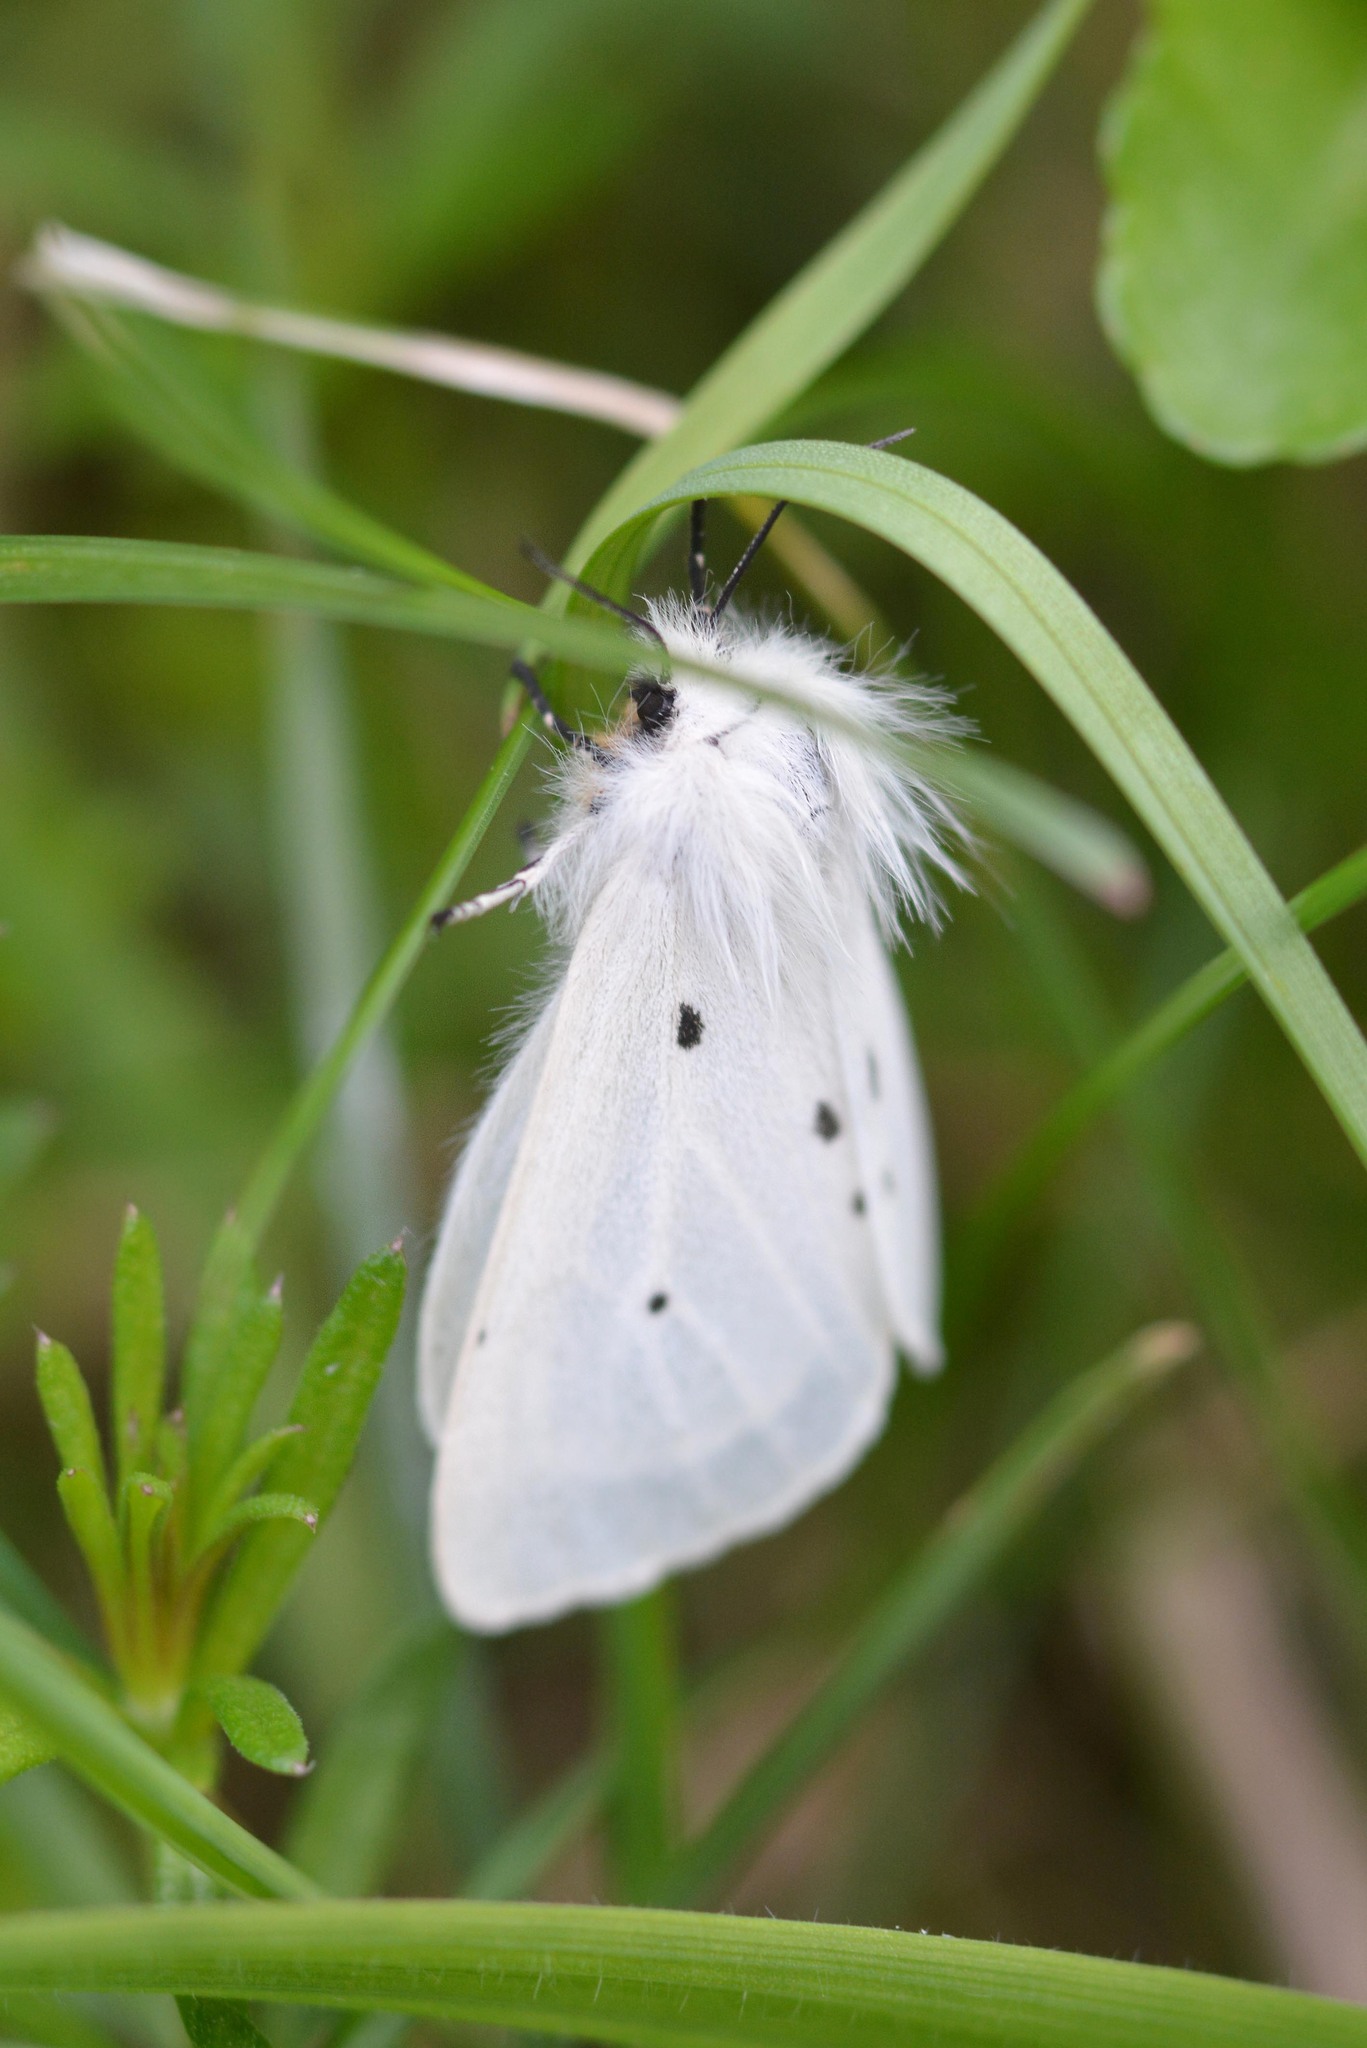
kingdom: Animalia
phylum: Arthropoda
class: Insecta
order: Lepidoptera
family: Erebidae
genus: Diaphora
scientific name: Diaphora mendica
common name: Muslin moth
